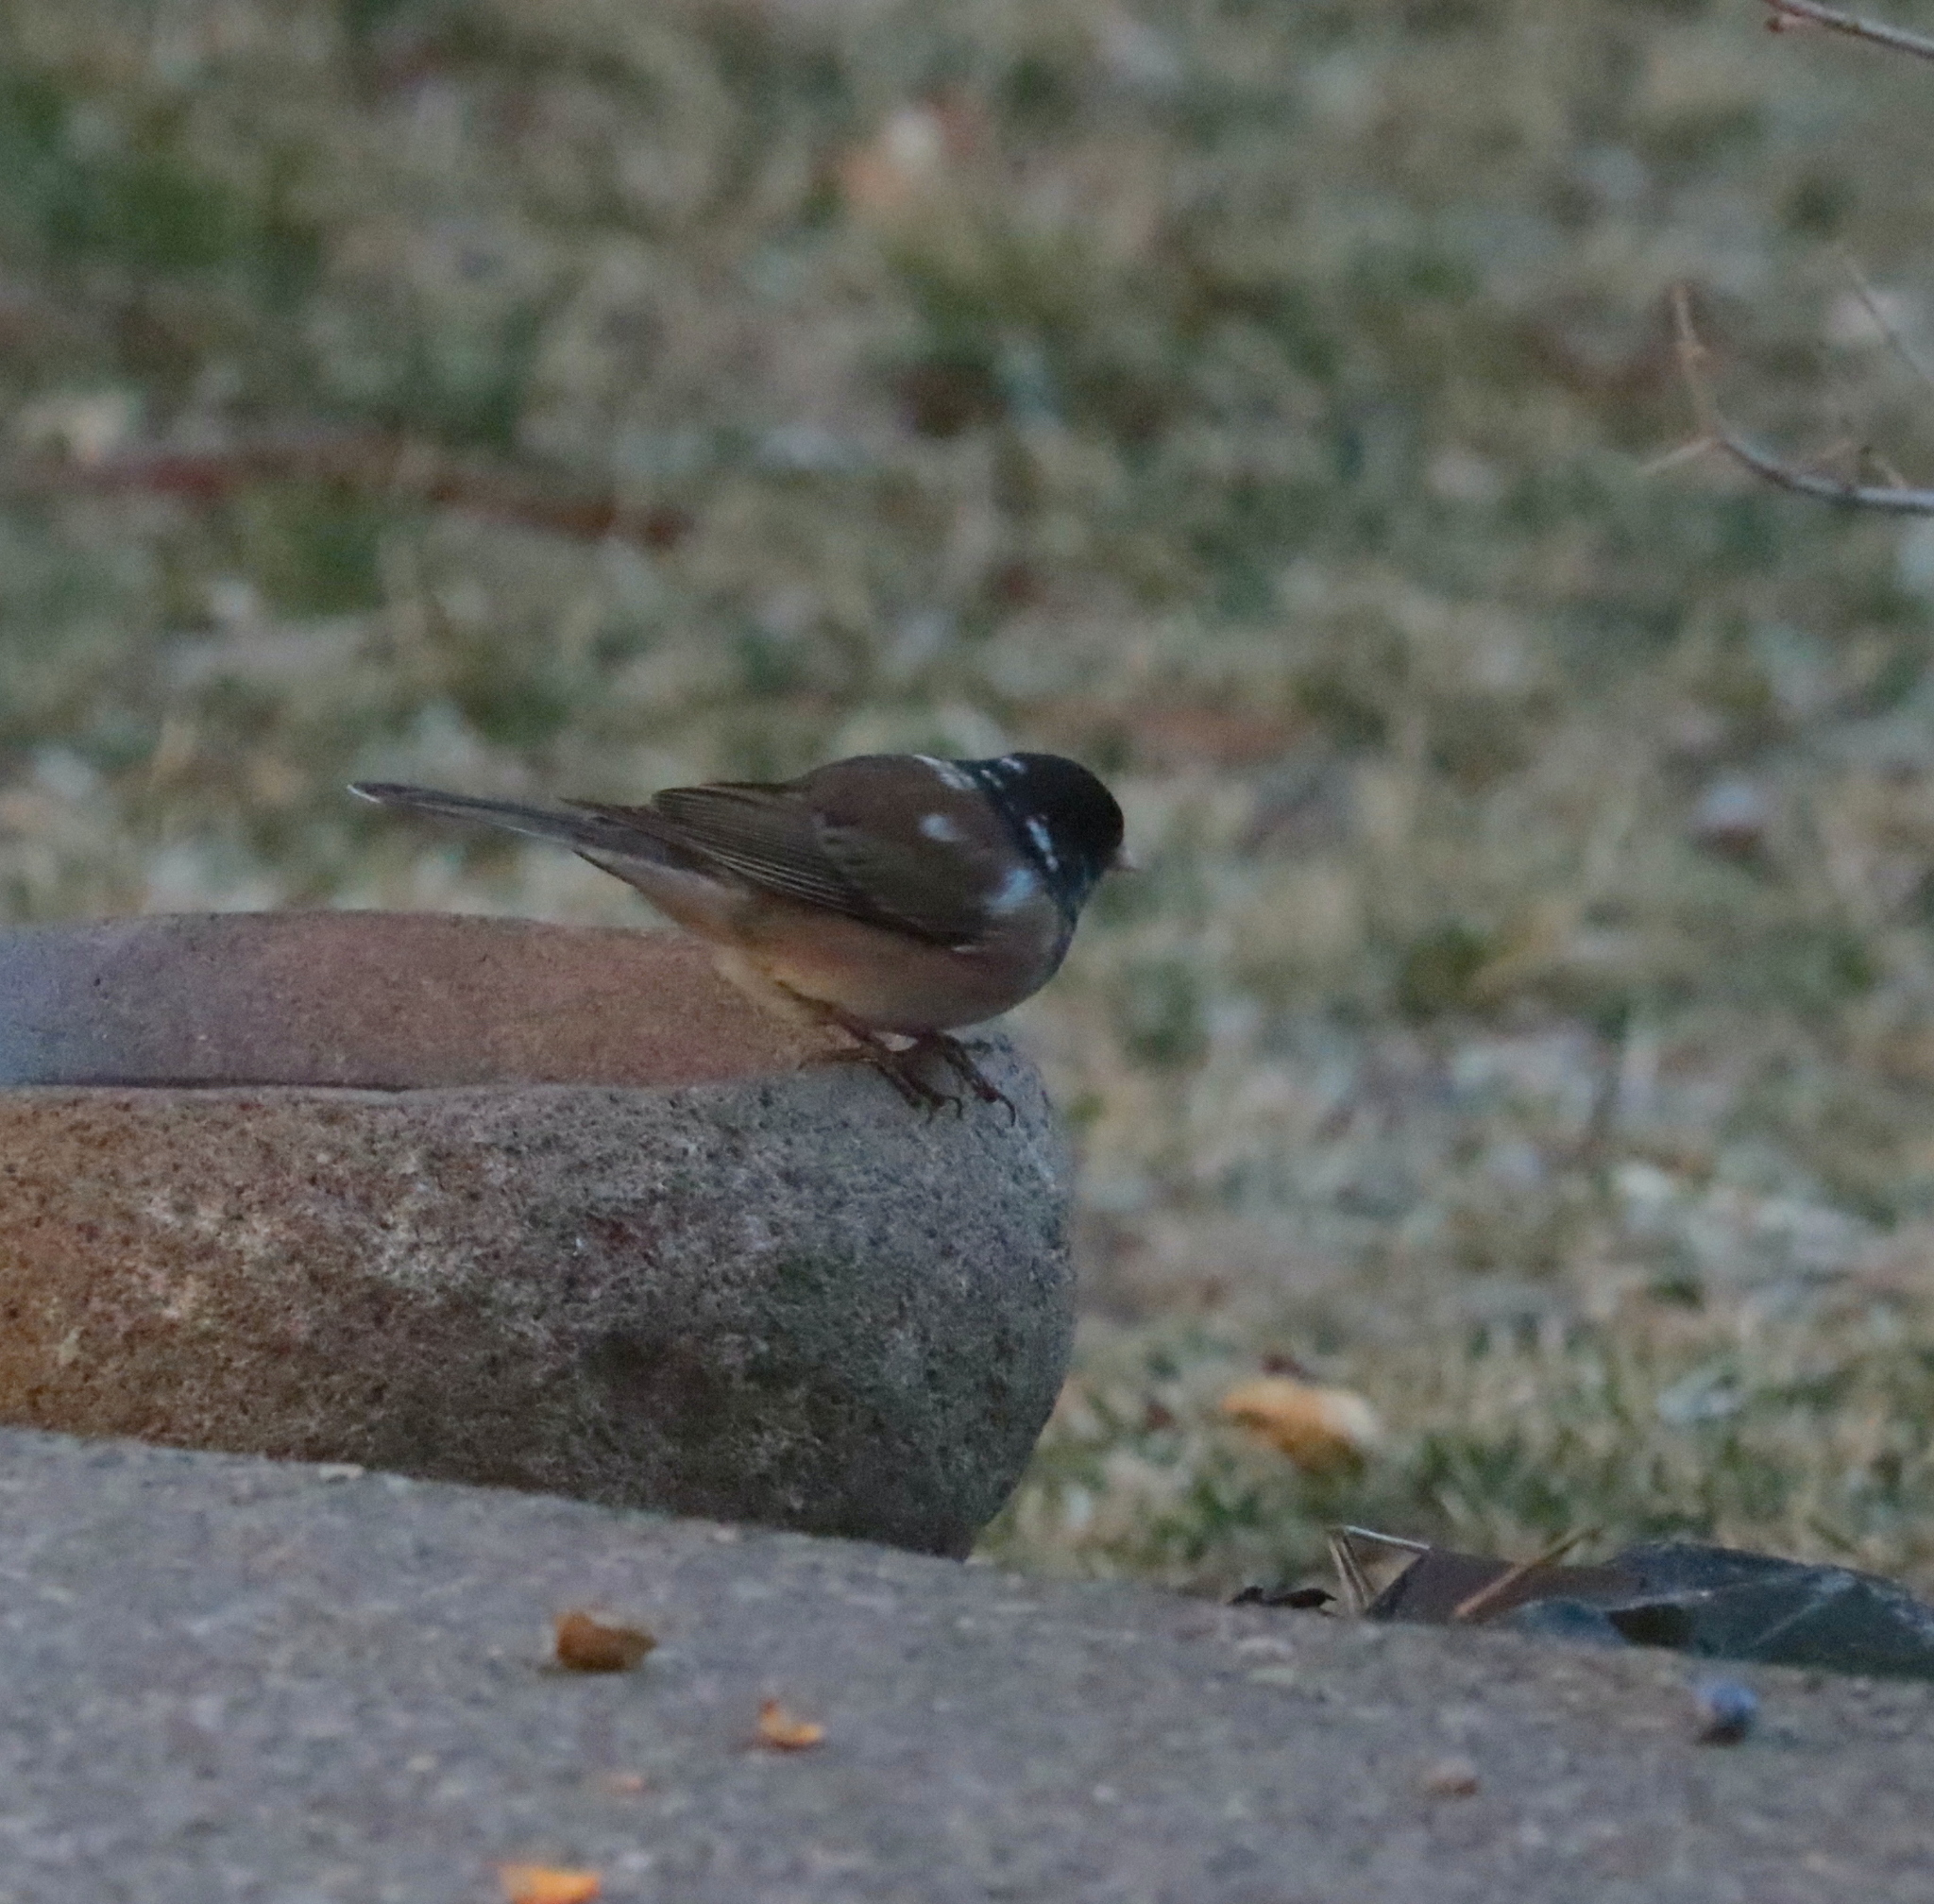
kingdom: Animalia
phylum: Chordata
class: Aves
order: Passeriformes
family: Passerellidae
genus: Junco
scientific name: Junco hyemalis
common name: Dark-eyed junco
